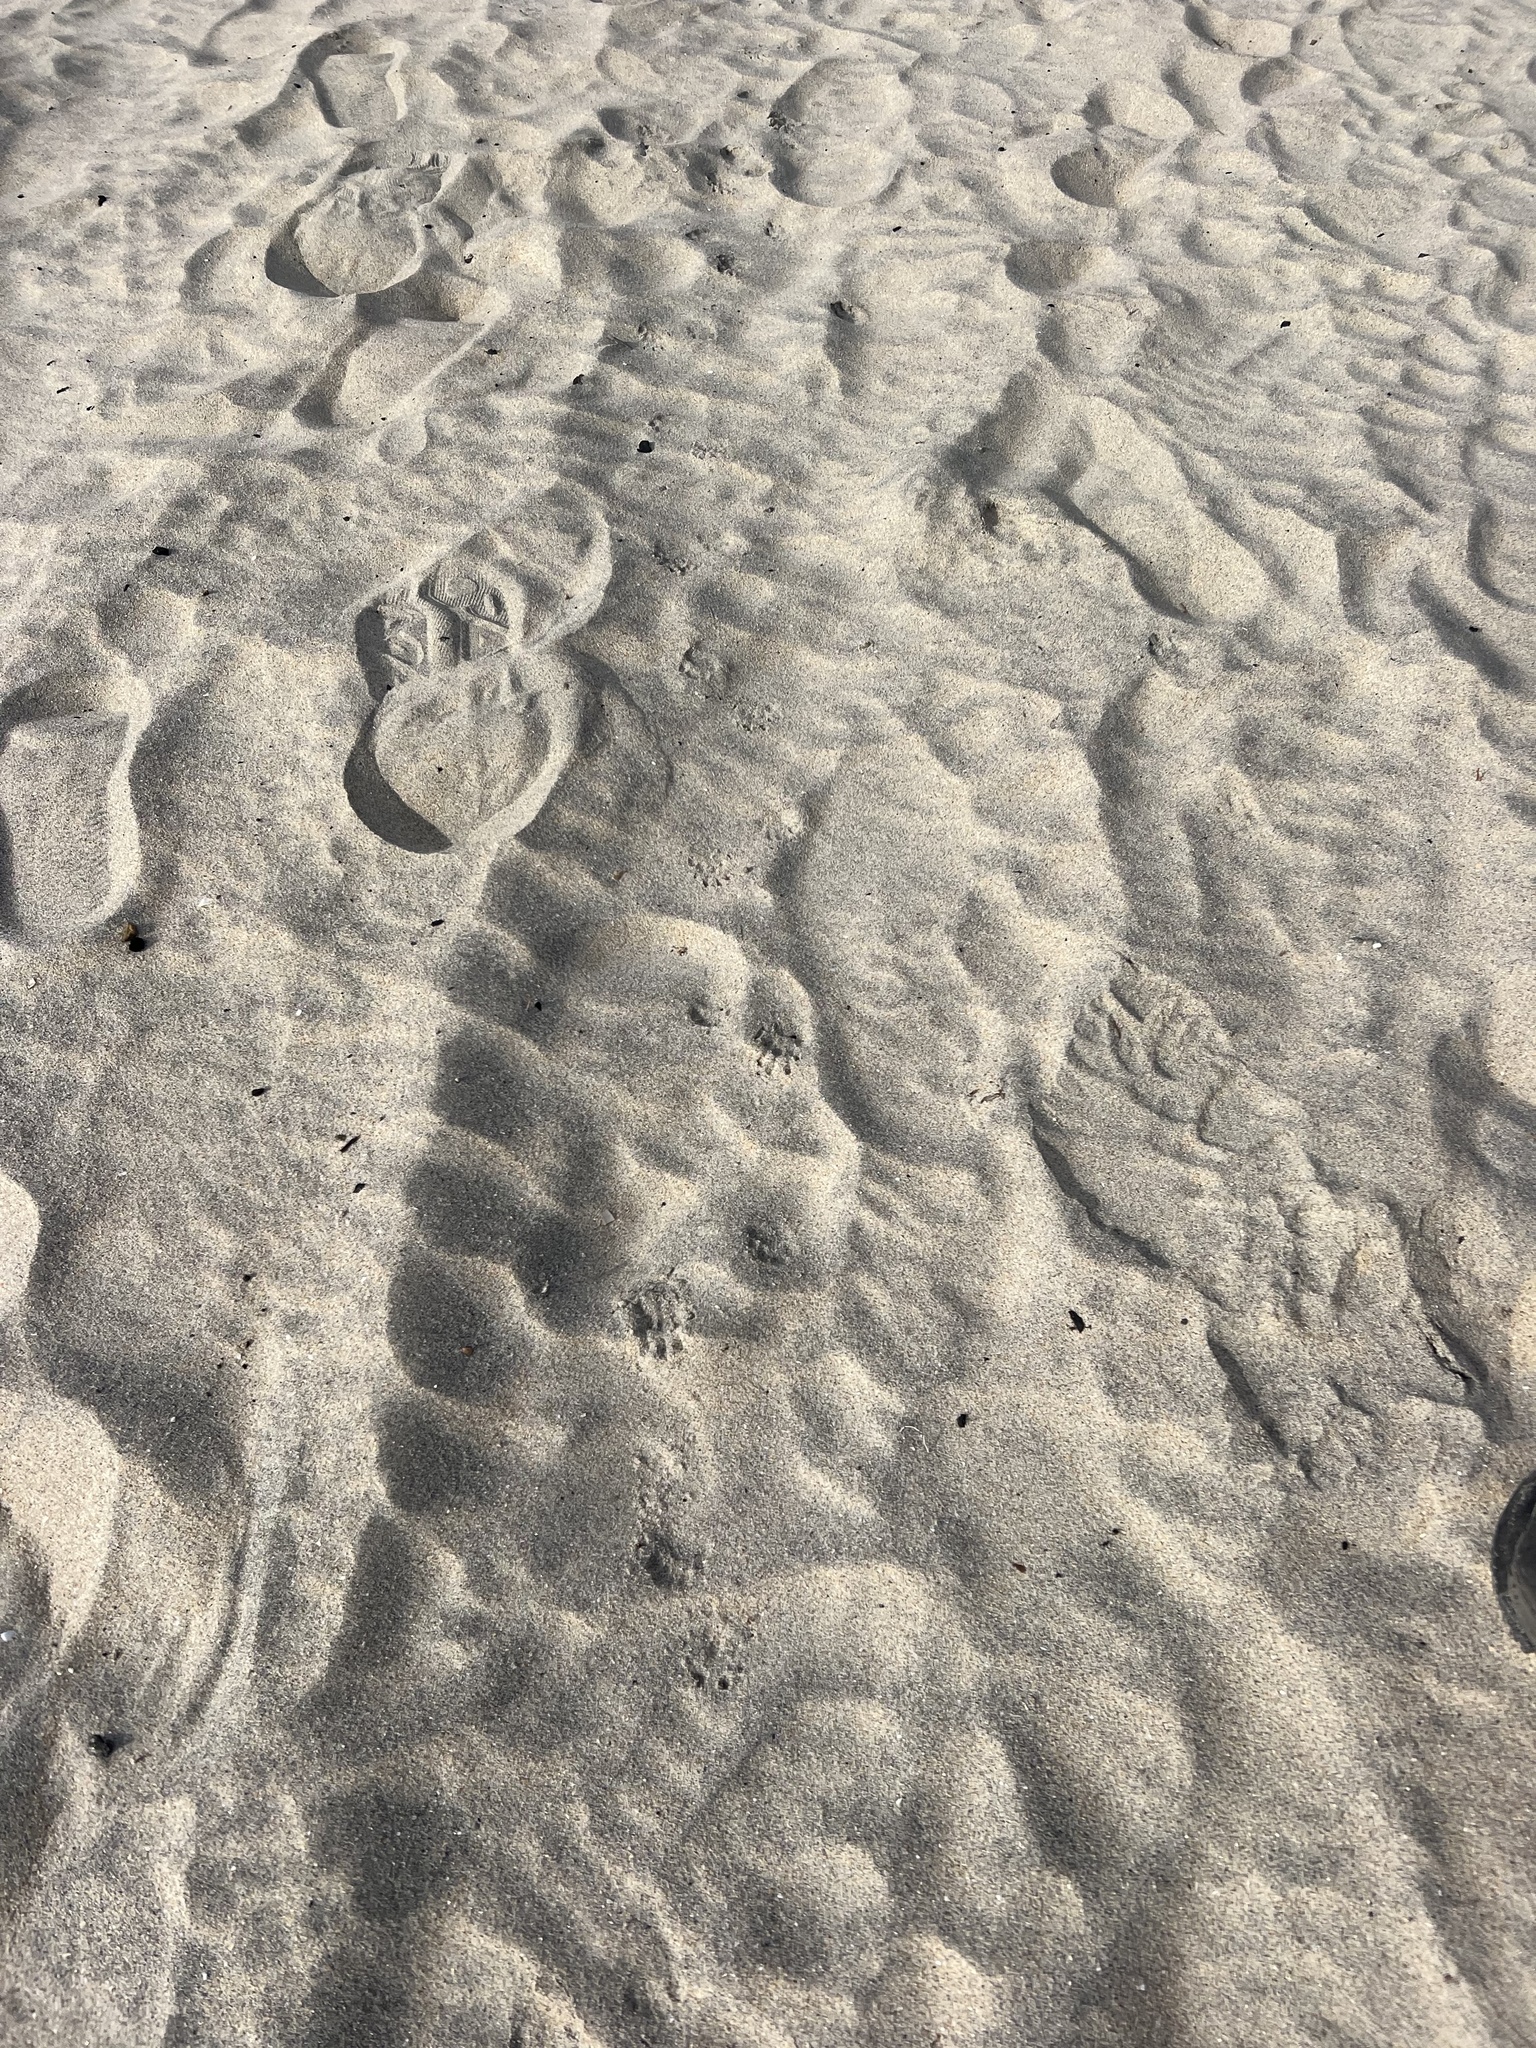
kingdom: Animalia
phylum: Chordata
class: Mammalia
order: Carnivora
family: Procyonidae
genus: Procyon
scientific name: Procyon lotor
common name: Raccoon
